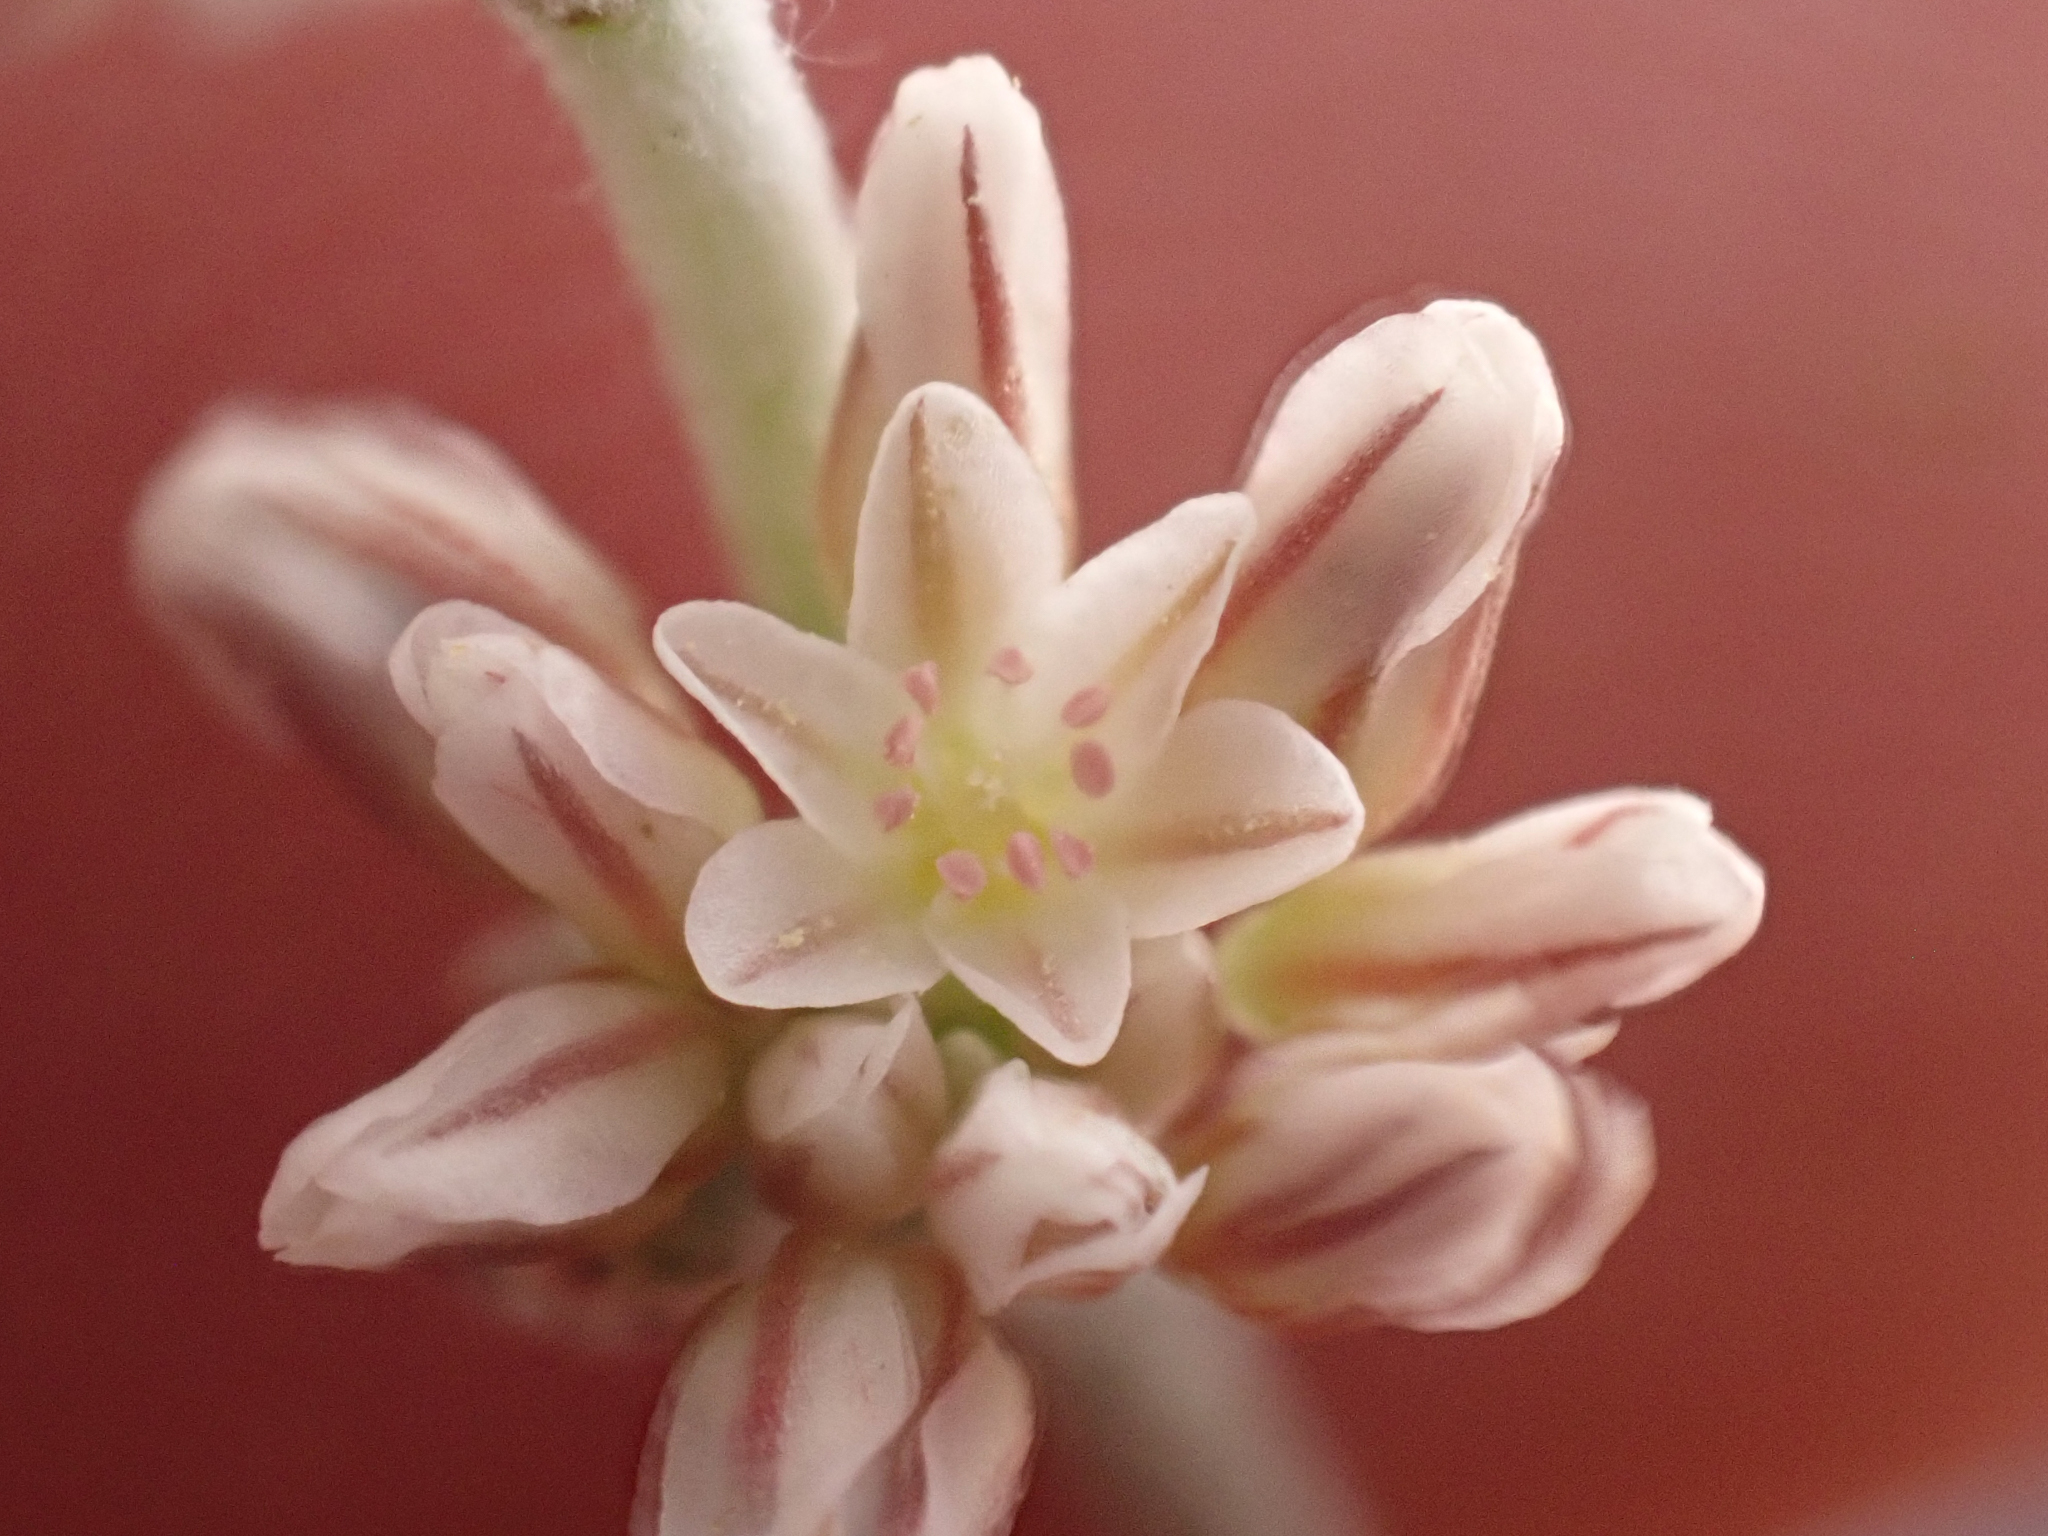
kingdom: Plantae
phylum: Tracheophyta
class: Magnoliopsida
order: Caryophyllales
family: Polygonaceae
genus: Eriogonum
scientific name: Eriogonum eastwoodianum
